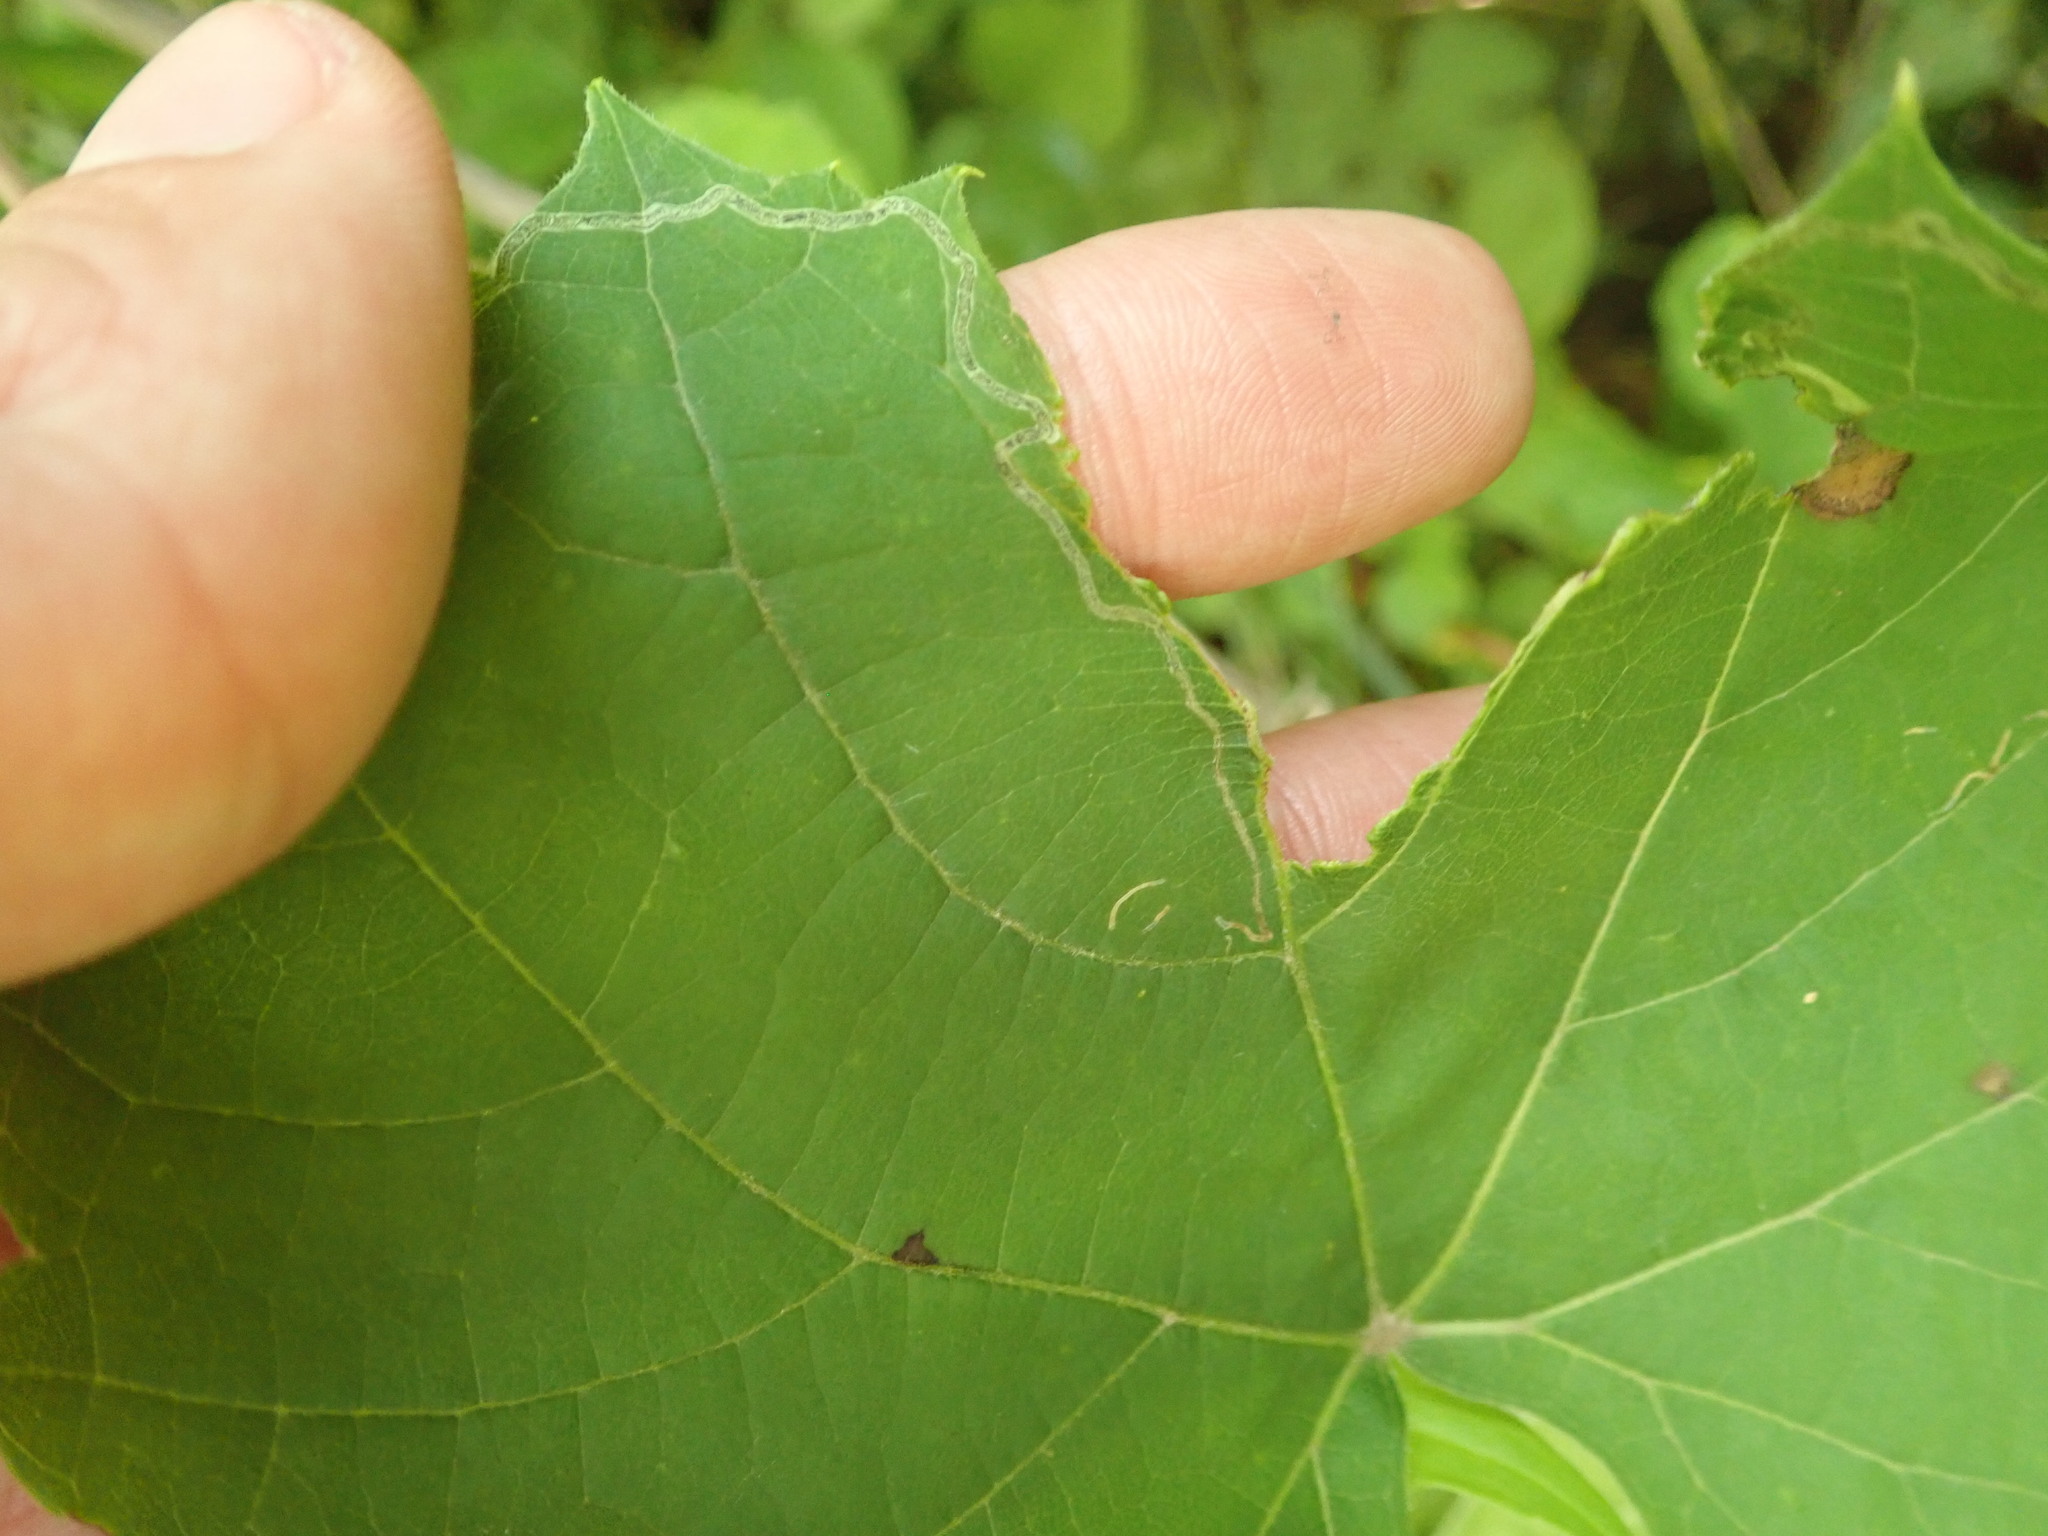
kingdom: Animalia
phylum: Arthropoda
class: Insecta
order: Lepidoptera
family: Gracillariidae
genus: Phyllocnistis
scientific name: Phyllocnistis vitifoliella
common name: Grape leaf-miner moth
